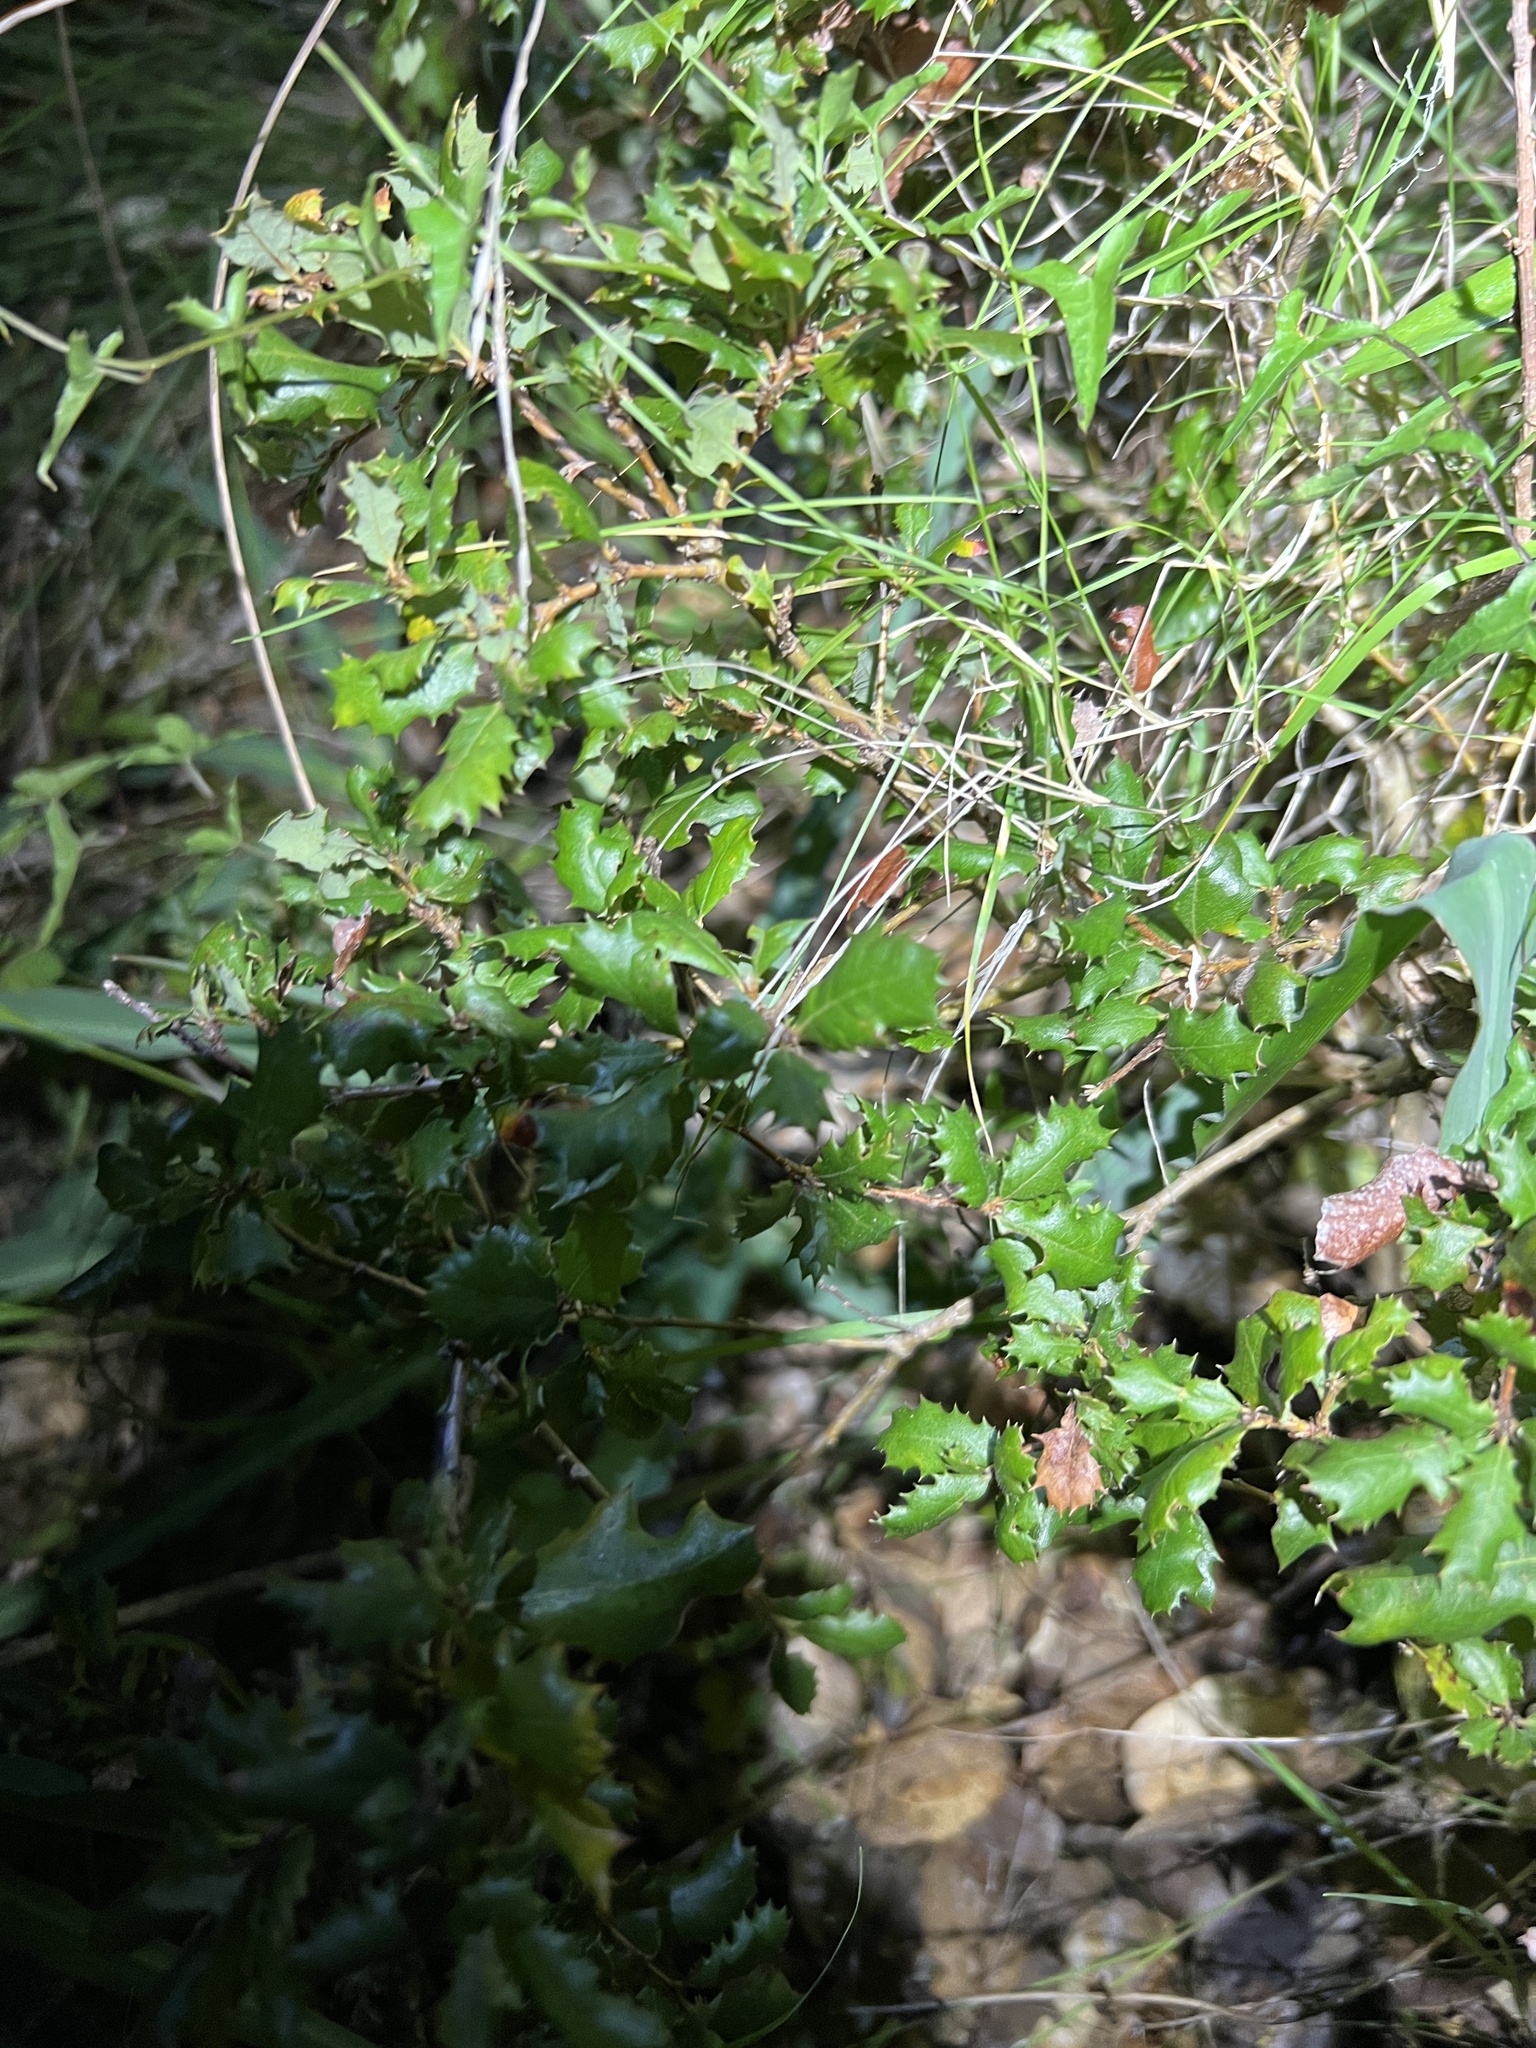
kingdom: Plantae
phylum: Tracheophyta
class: Magnoliopsida
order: Fagales
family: Fagaceae
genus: Quercus
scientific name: Quercus berberidifolia
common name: California scrub oak
